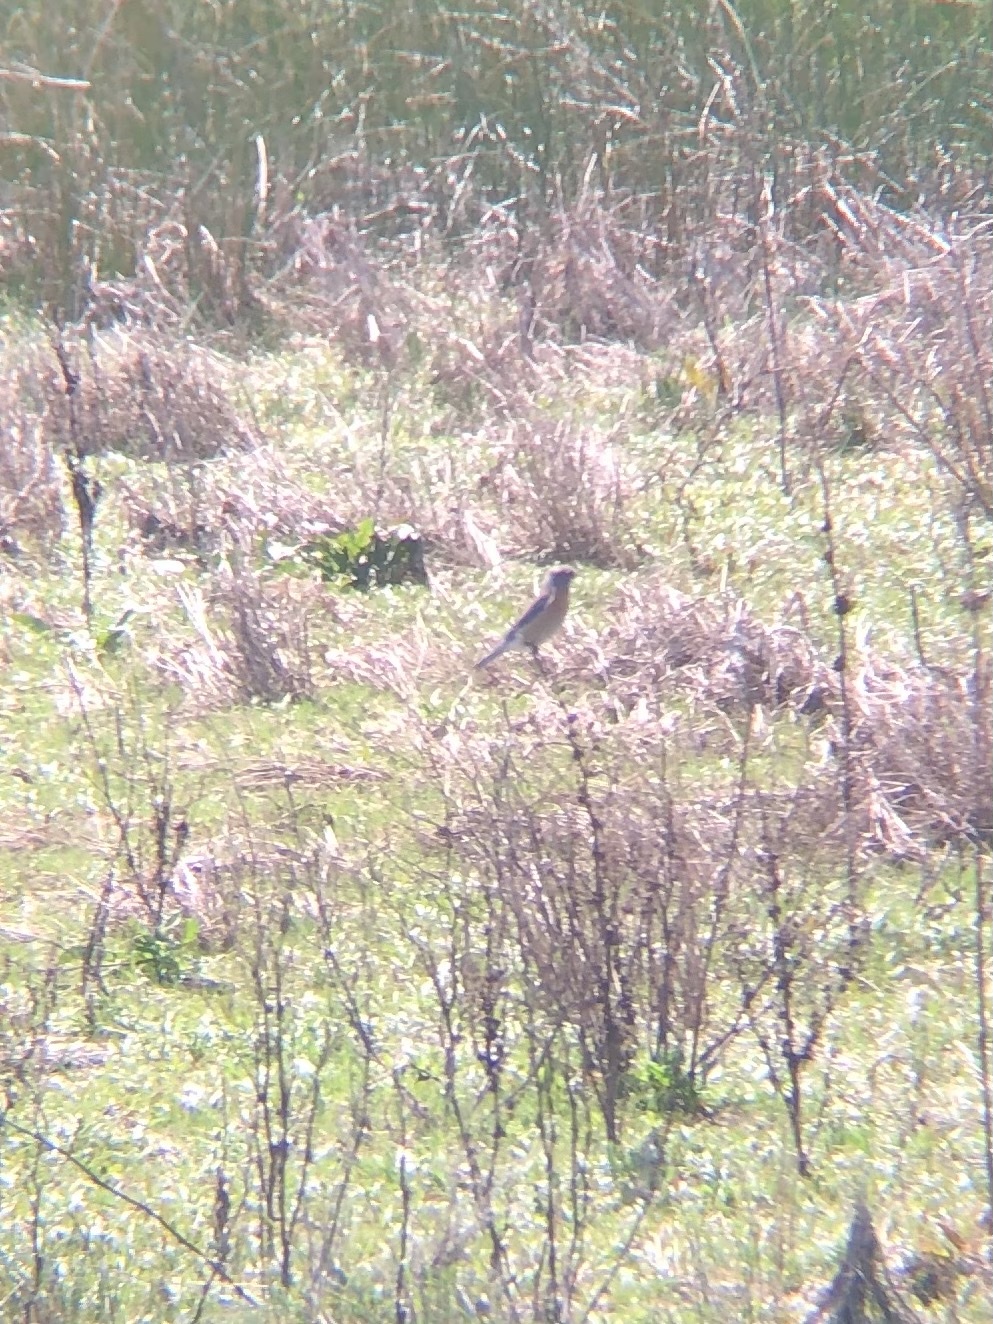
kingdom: Animalia
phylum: Chordata
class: Aves
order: Passeriformes
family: Turdidae
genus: Sialia
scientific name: Sialia mexicana
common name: Western bluebird
